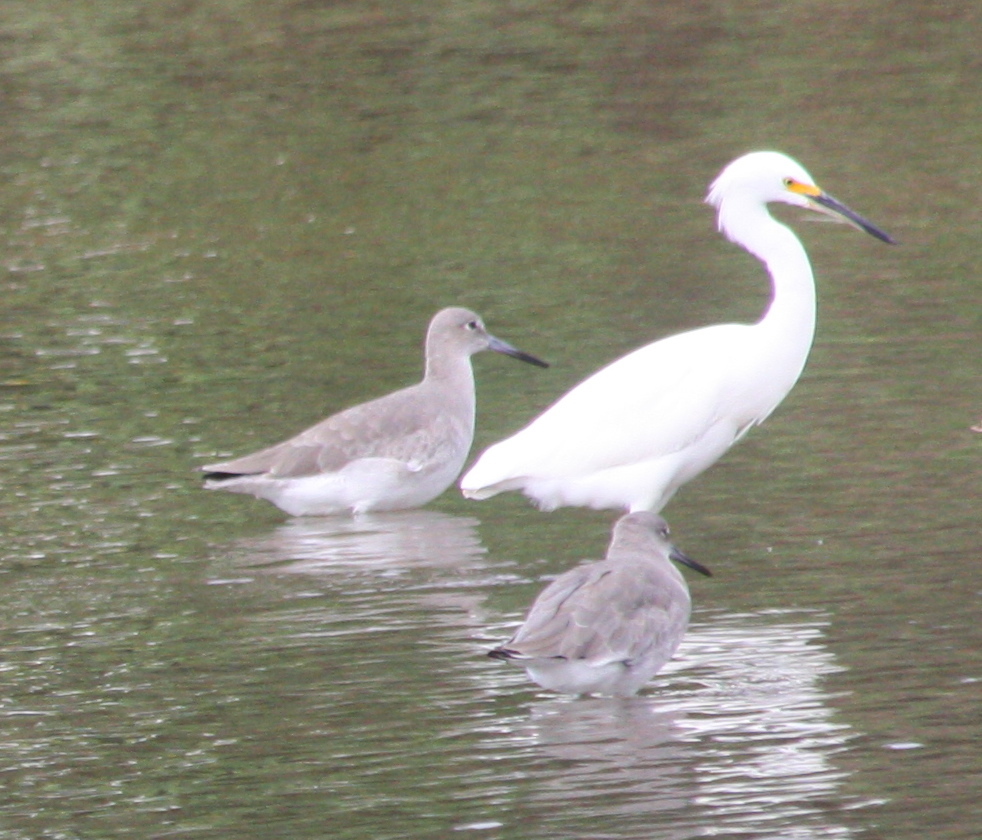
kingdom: Animalia
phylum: Chordata
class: Aves
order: Pelecaniformes
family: Ardeidae
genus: Egretta
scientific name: Egretta thula
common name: Snowy egret
